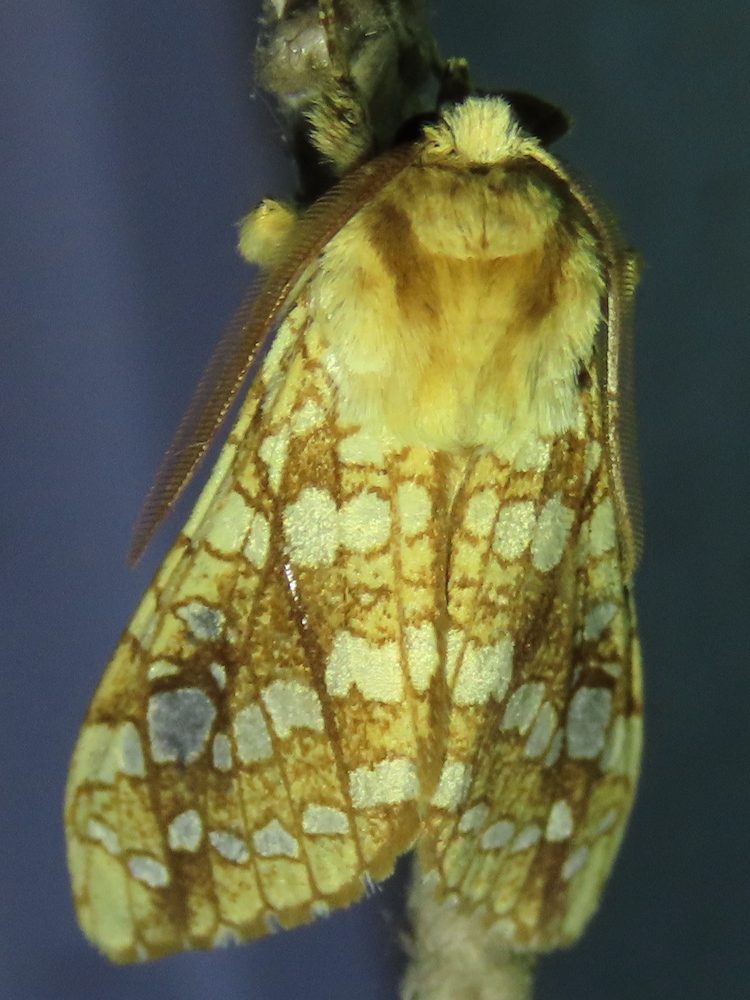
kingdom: Animalia
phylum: Arthropoda
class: Insecta
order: Lepidoptera
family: Erebidae
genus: Lophocampa
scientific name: Lophocampa caryae
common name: Hickory tussock moth
